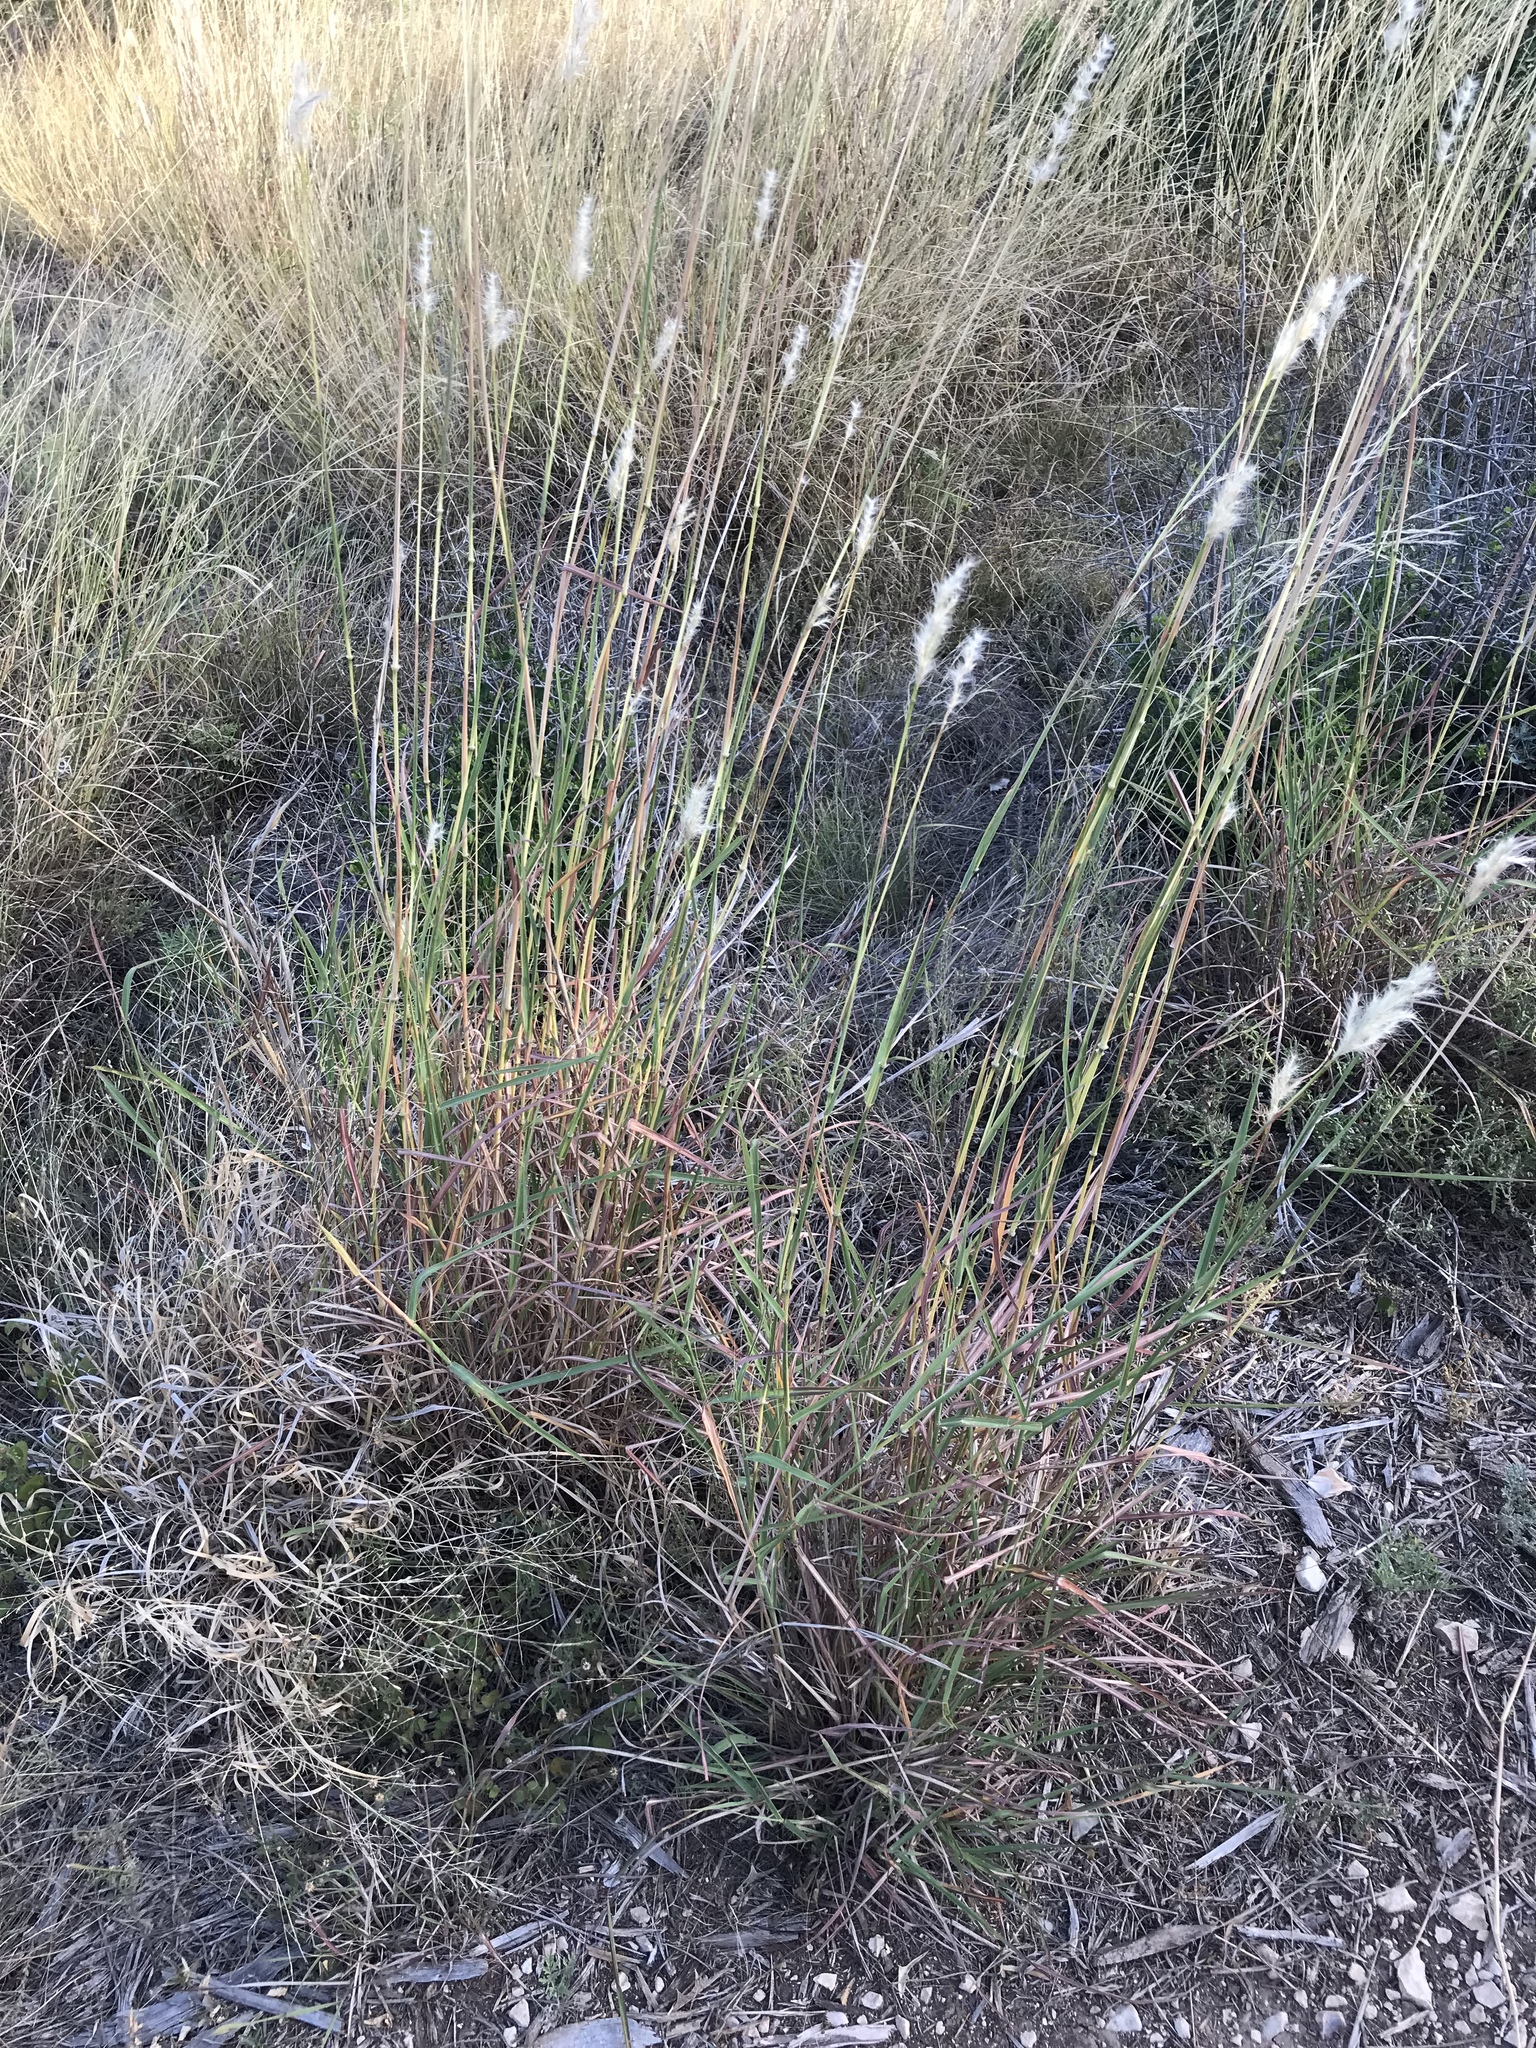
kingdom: Plantae
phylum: Tracheophyta
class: Liliopsida
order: Poales
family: Poaceae
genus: Bothriochloa
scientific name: Bothriochloa barbinodis
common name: Cane bluestem
